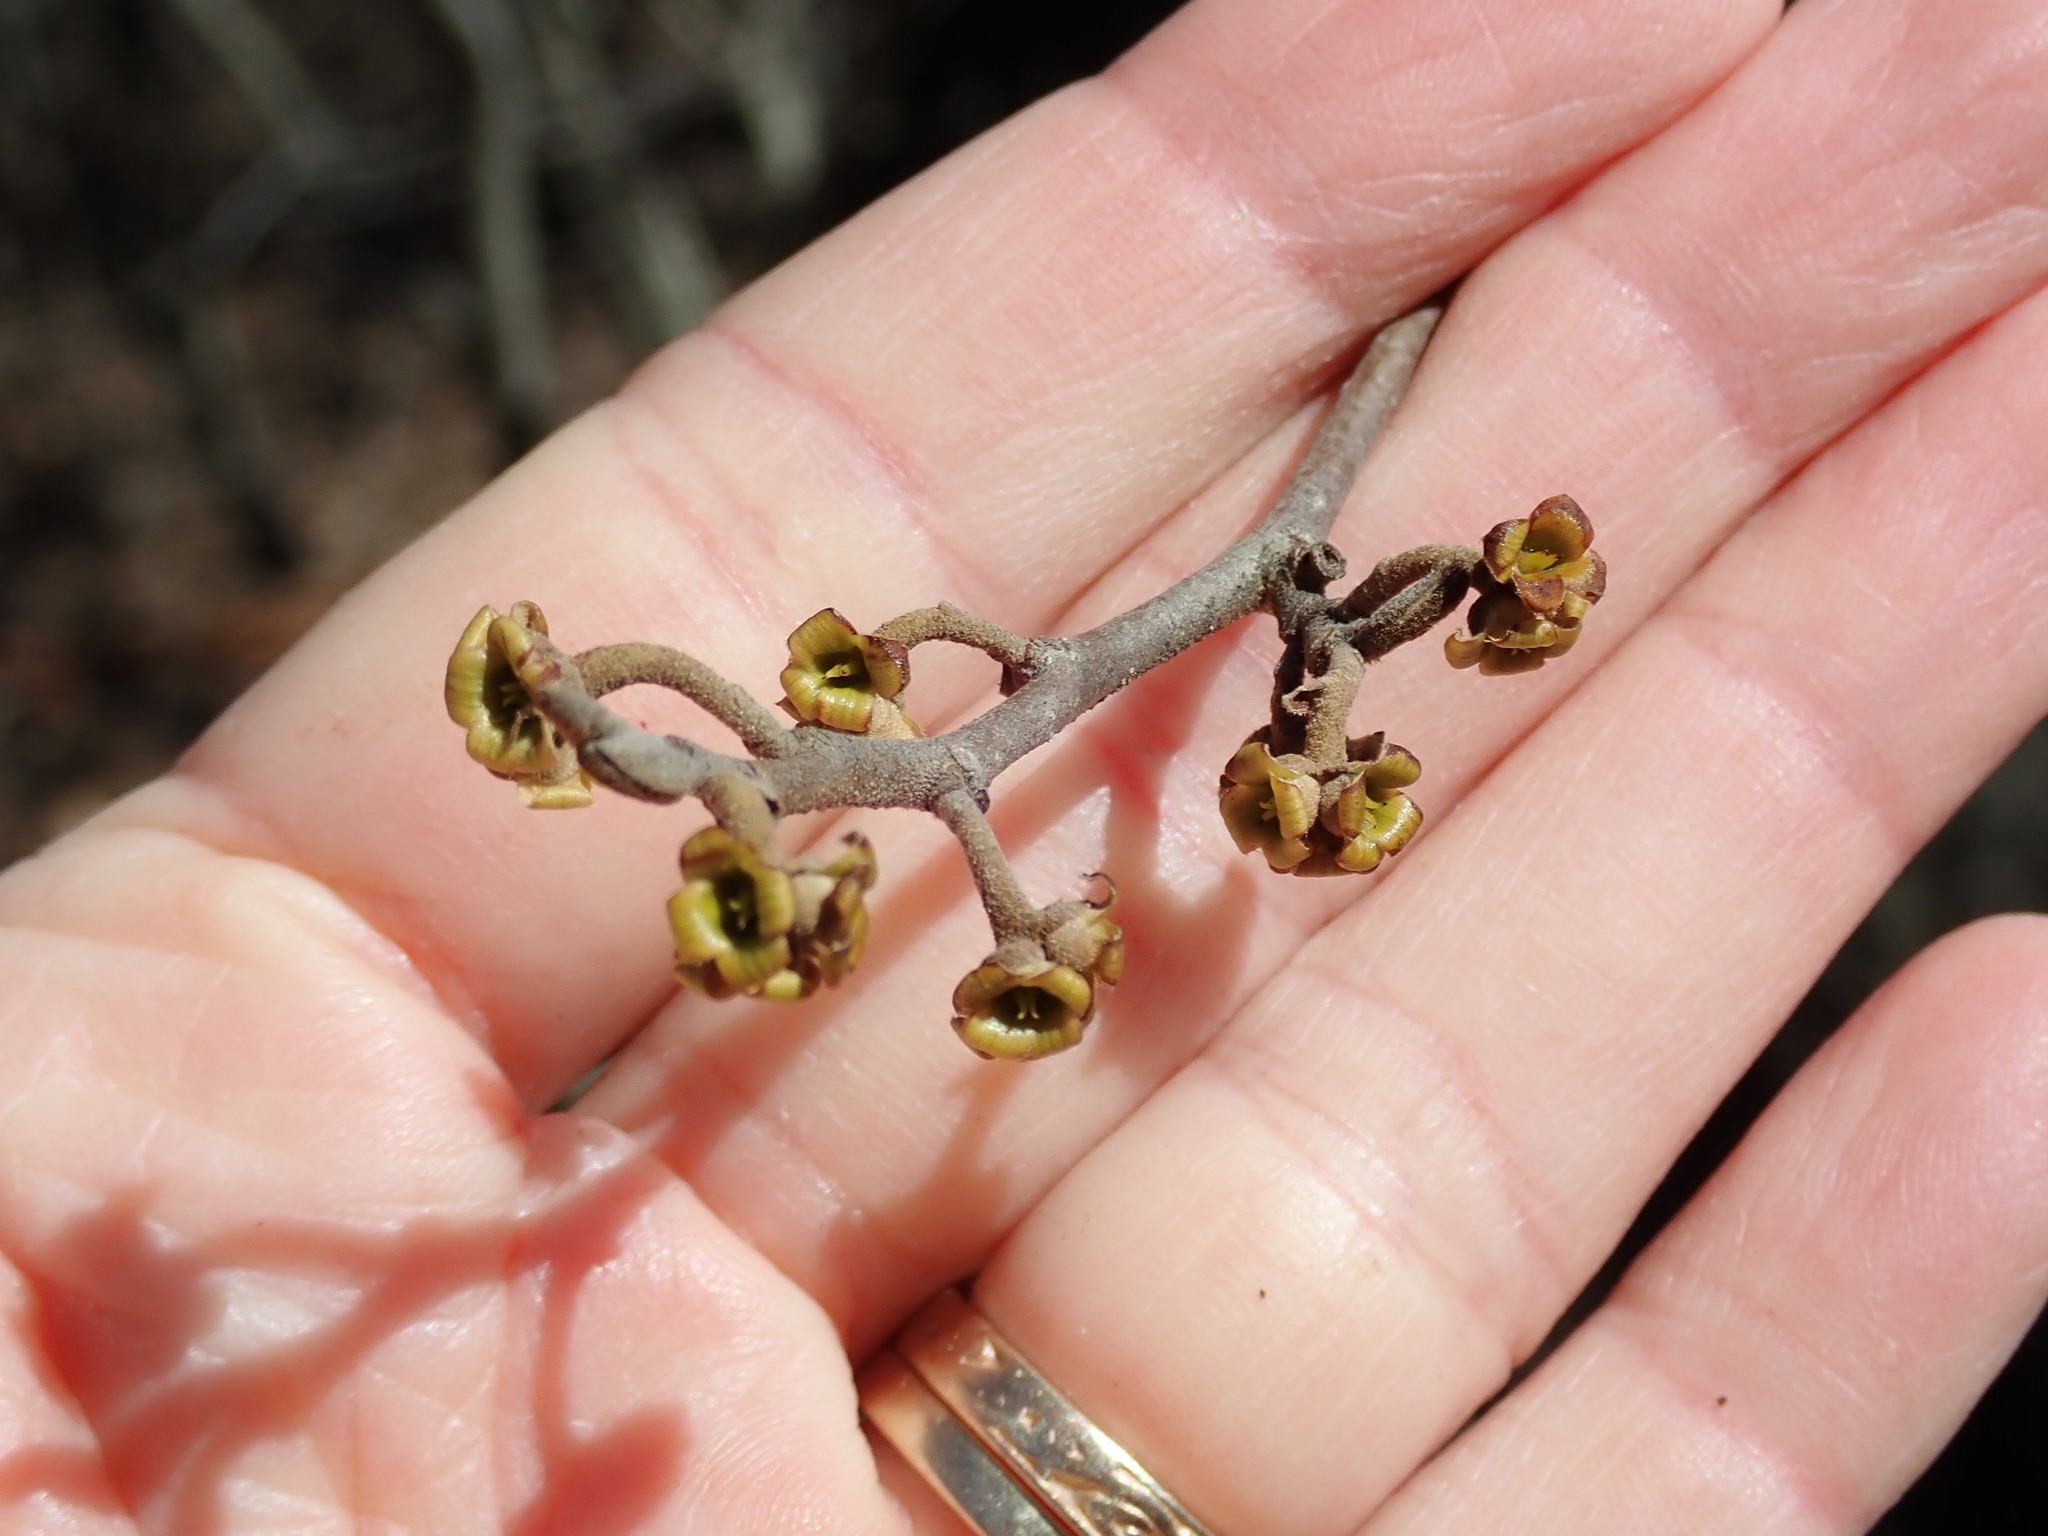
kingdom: Plantae
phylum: Tracheophyta
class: Magnoliopsida
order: Saxifragales
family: Hamamelidaceae
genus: Hamamelis
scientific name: Hamamelis virginiana
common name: Witch-hazel
